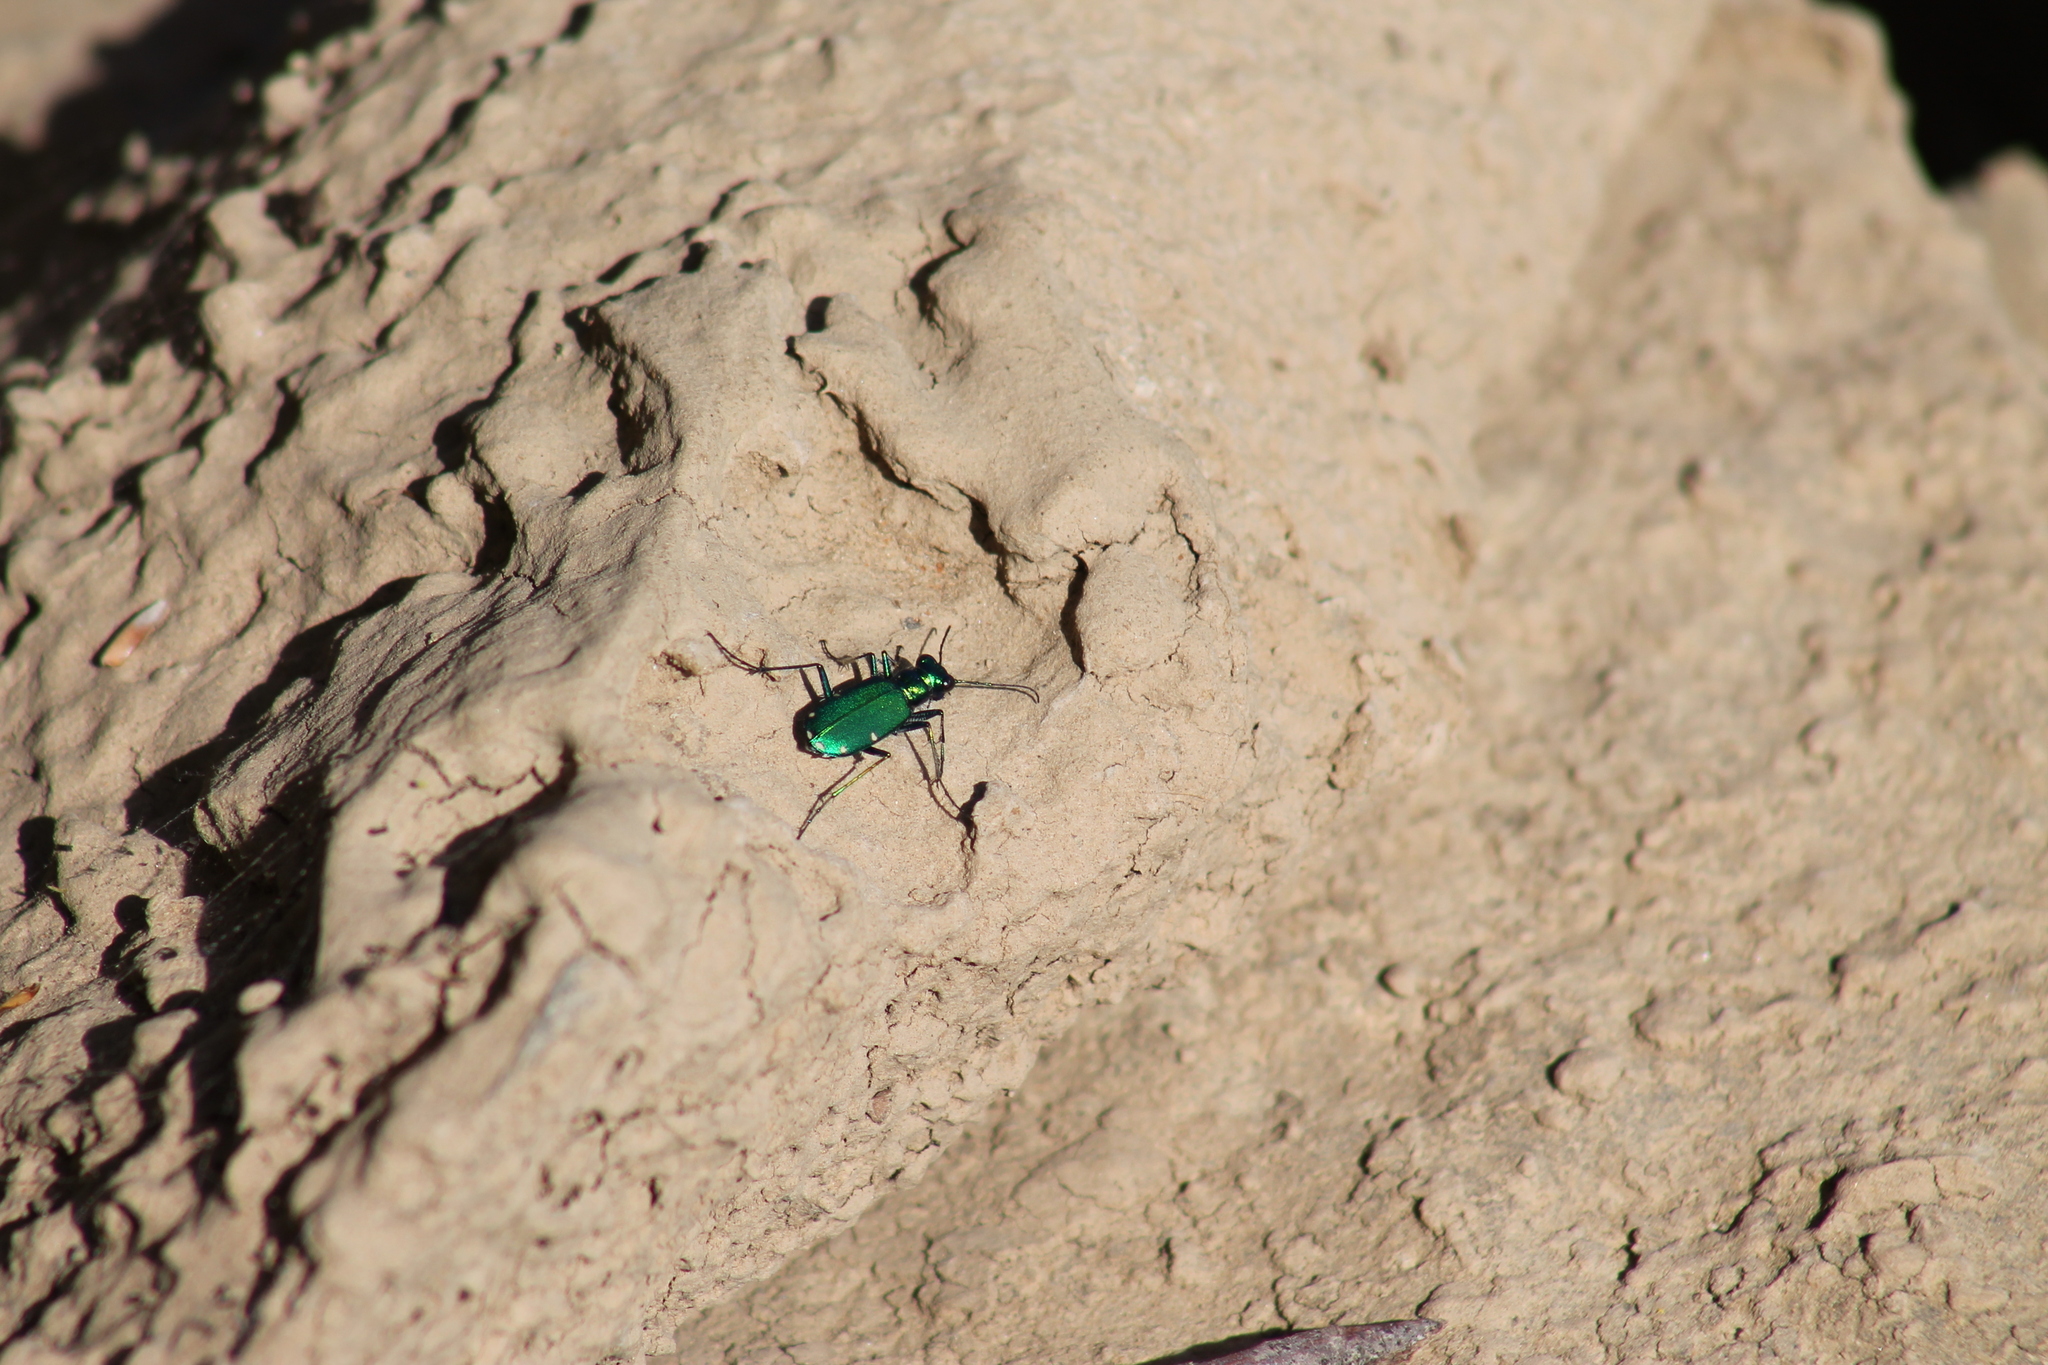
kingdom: Animalia
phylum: Arthropoda
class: Insecta
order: Coleoptera
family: Carabidae
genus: Cicindela
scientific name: Cicindela sexguttata
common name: Six-spotted tiger beetle
